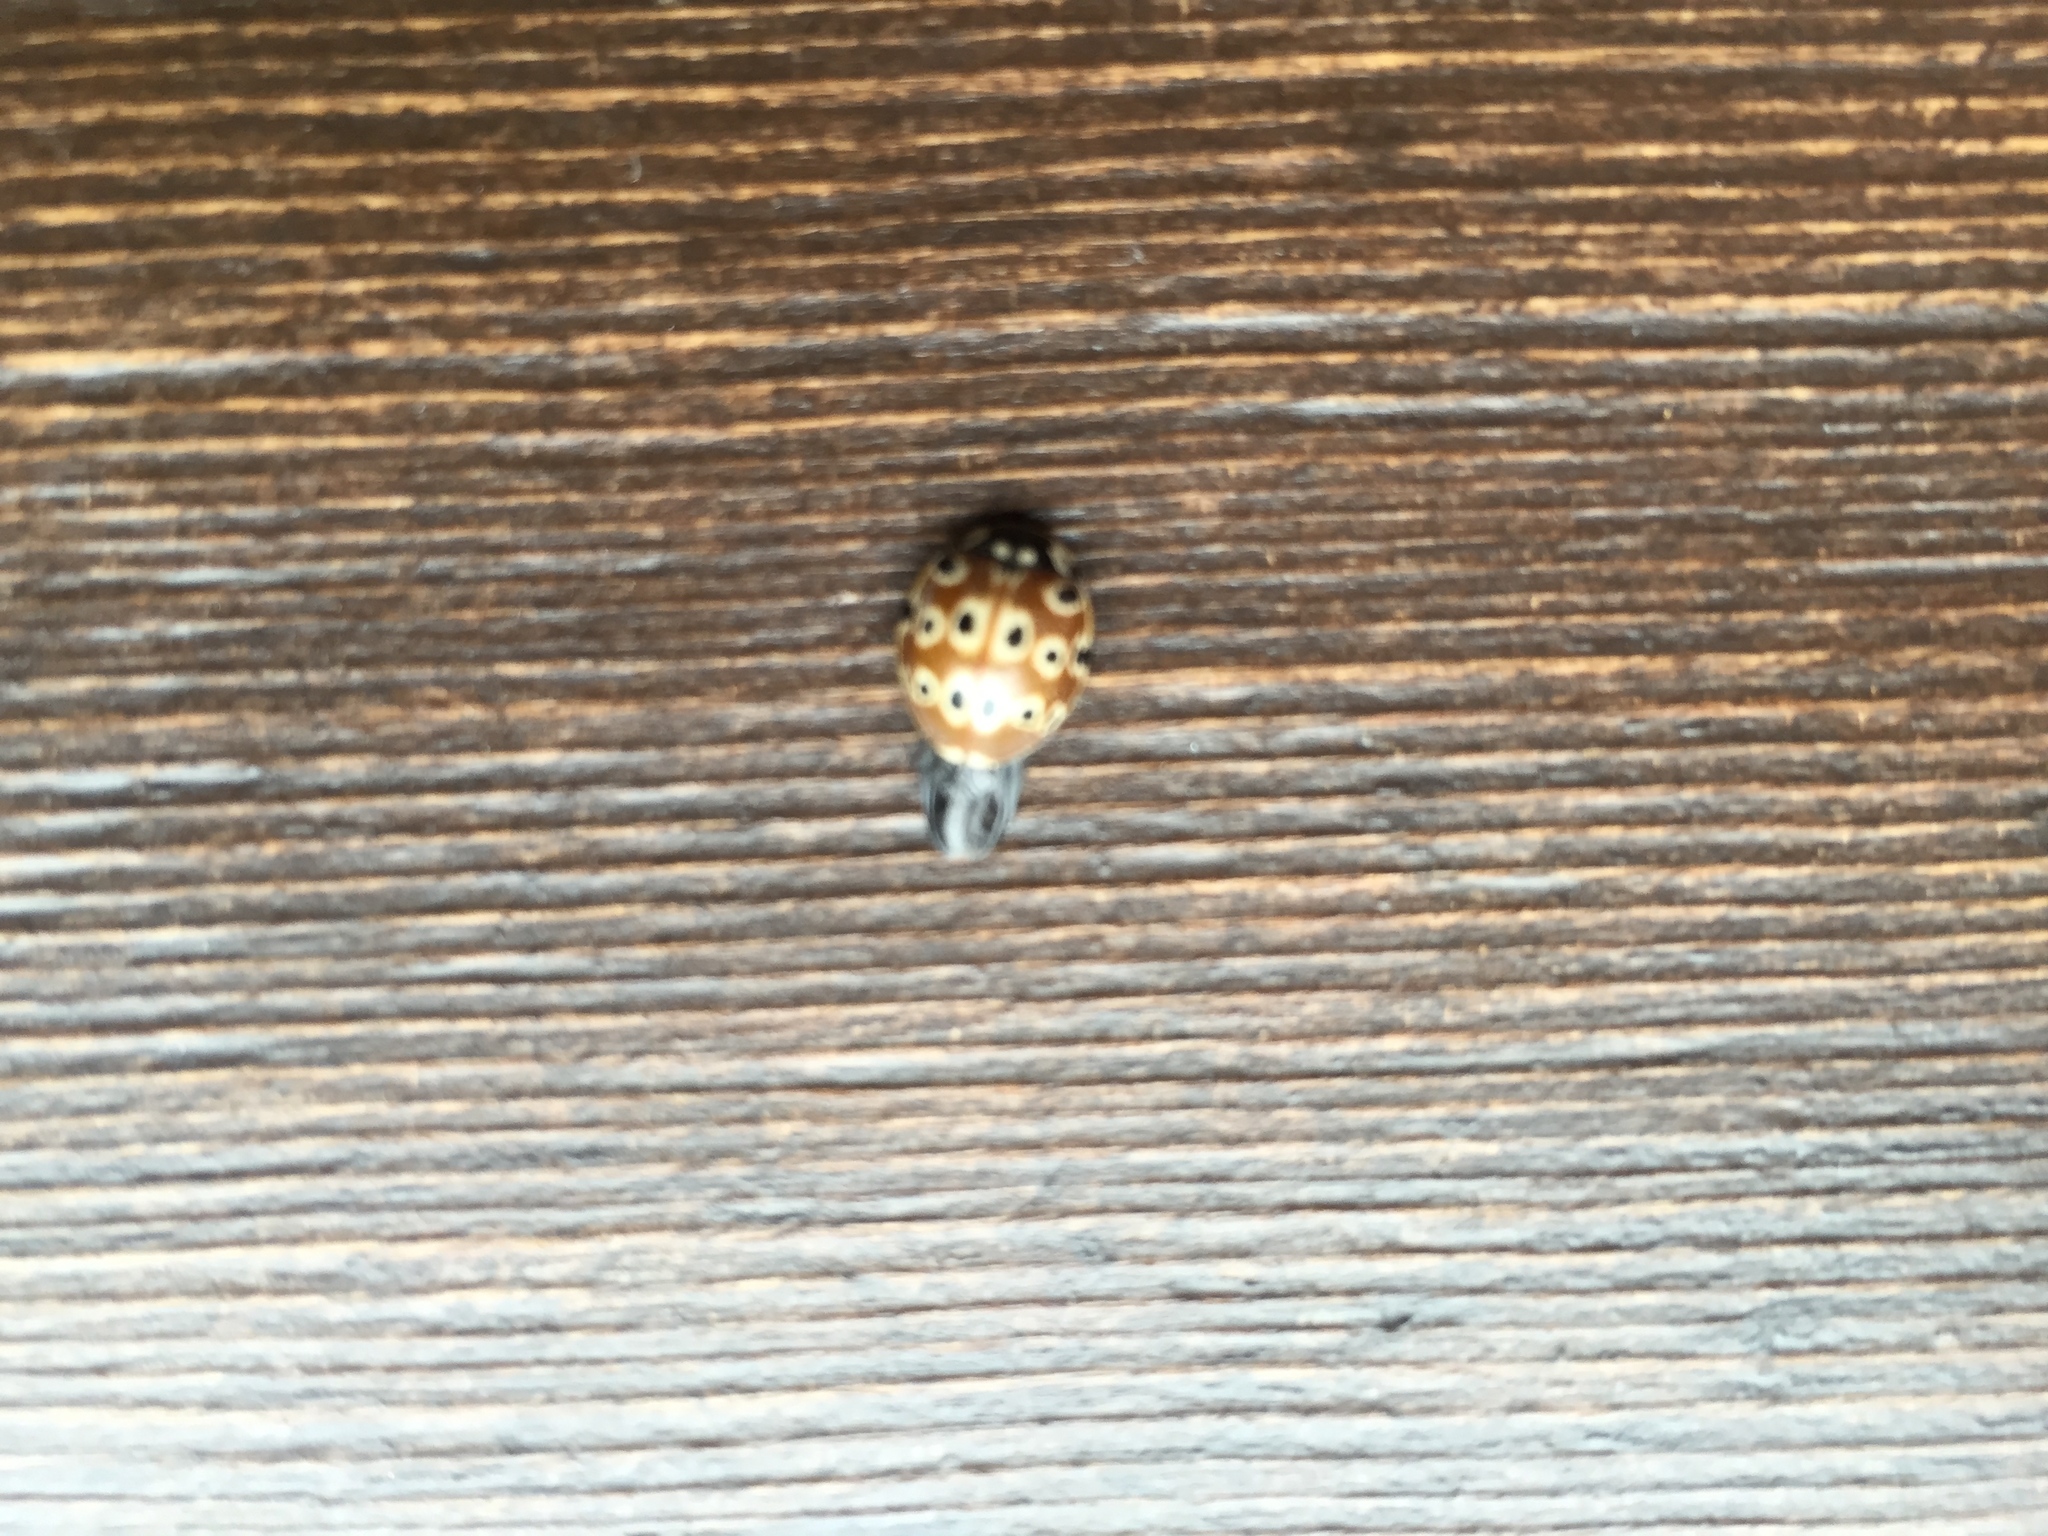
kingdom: Animalia
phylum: Arthropoda
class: Insecta
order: Coleoptera
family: Coccinellidae
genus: Anatis
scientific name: Anatis mali
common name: Eye-spotted lady beetle
